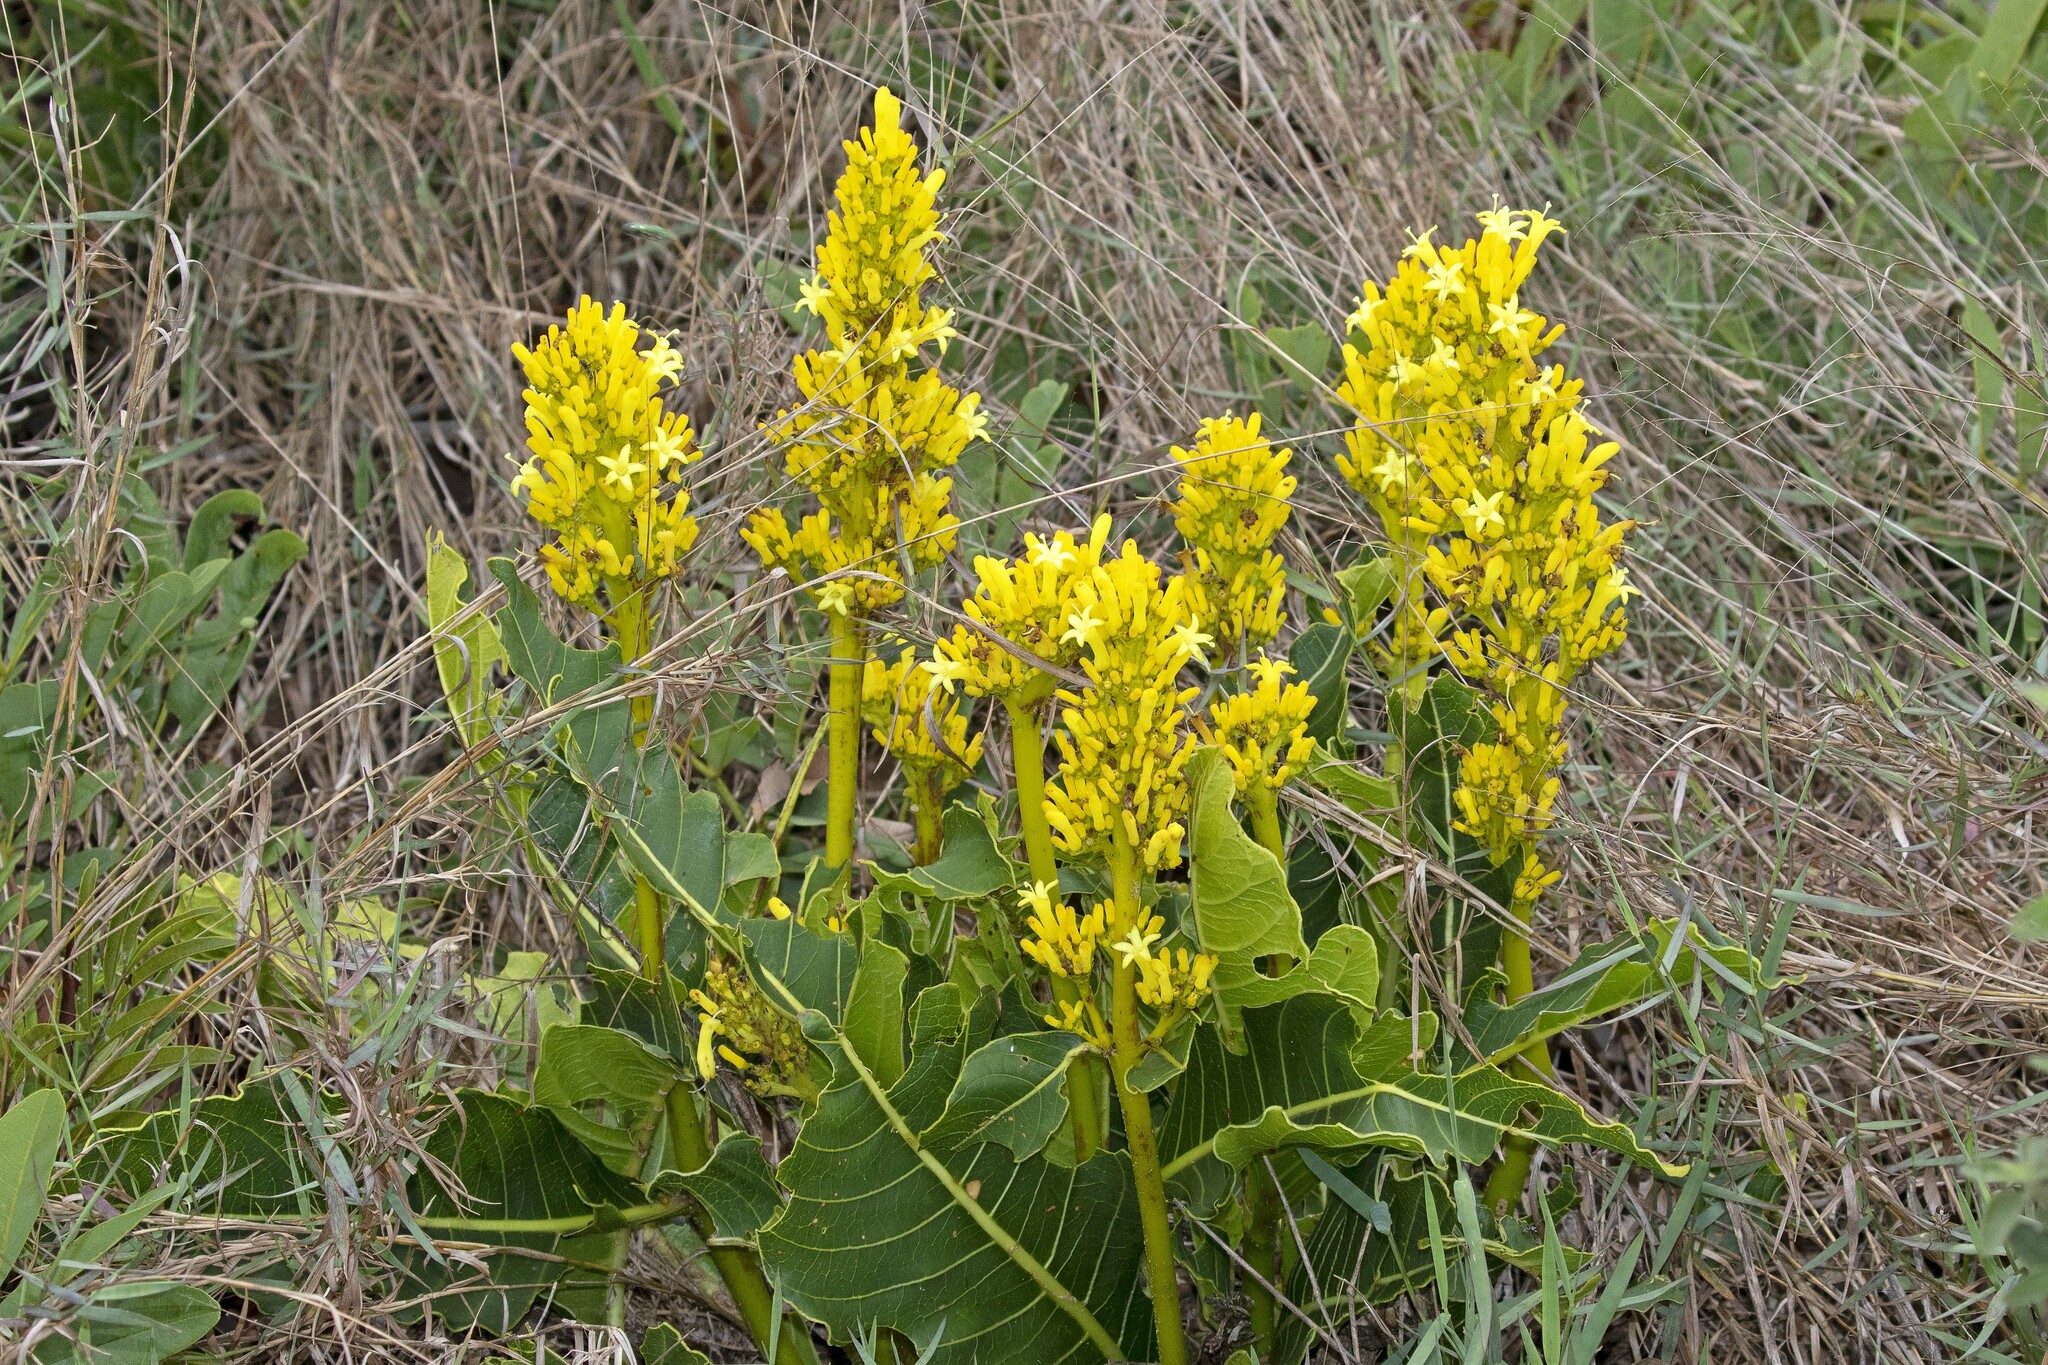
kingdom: Plantae
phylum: Tracheophyta
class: Magnoliopsida
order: Gentianales
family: Rubiaceae
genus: Palicourea
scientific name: Palicourea rigida
